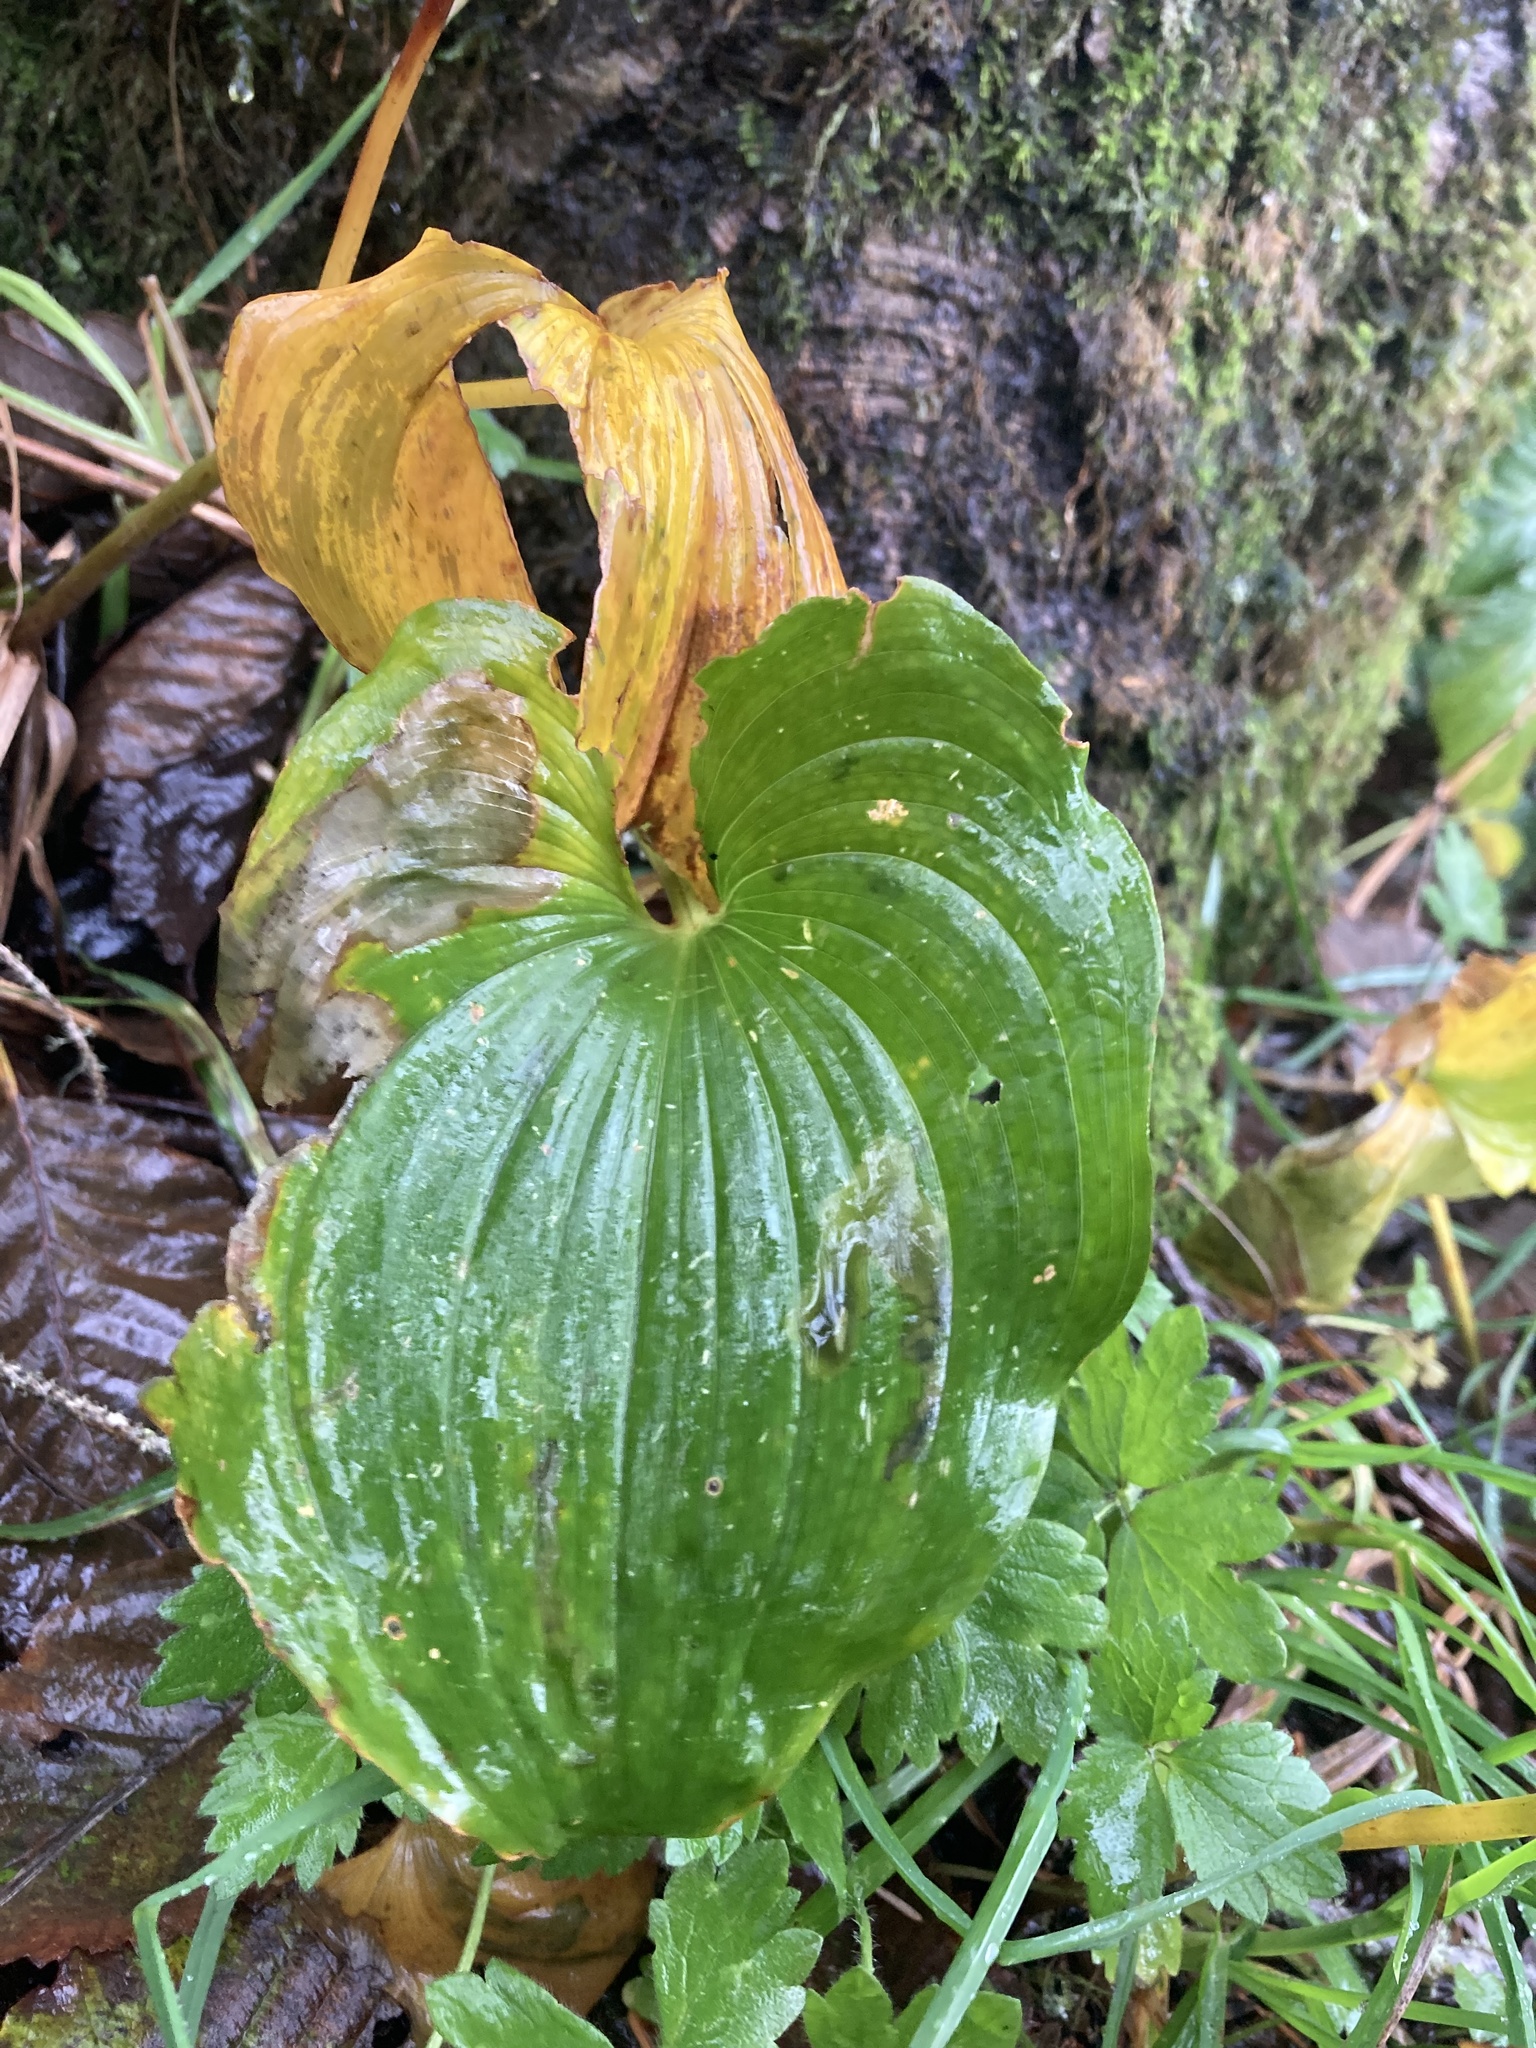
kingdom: Plantae
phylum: Tracheophyta
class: Liliopsida
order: Asparagales
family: Asparagaceae
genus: Maianthemum
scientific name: Maianthemum dilatatum
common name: False lily-of-the-valley
